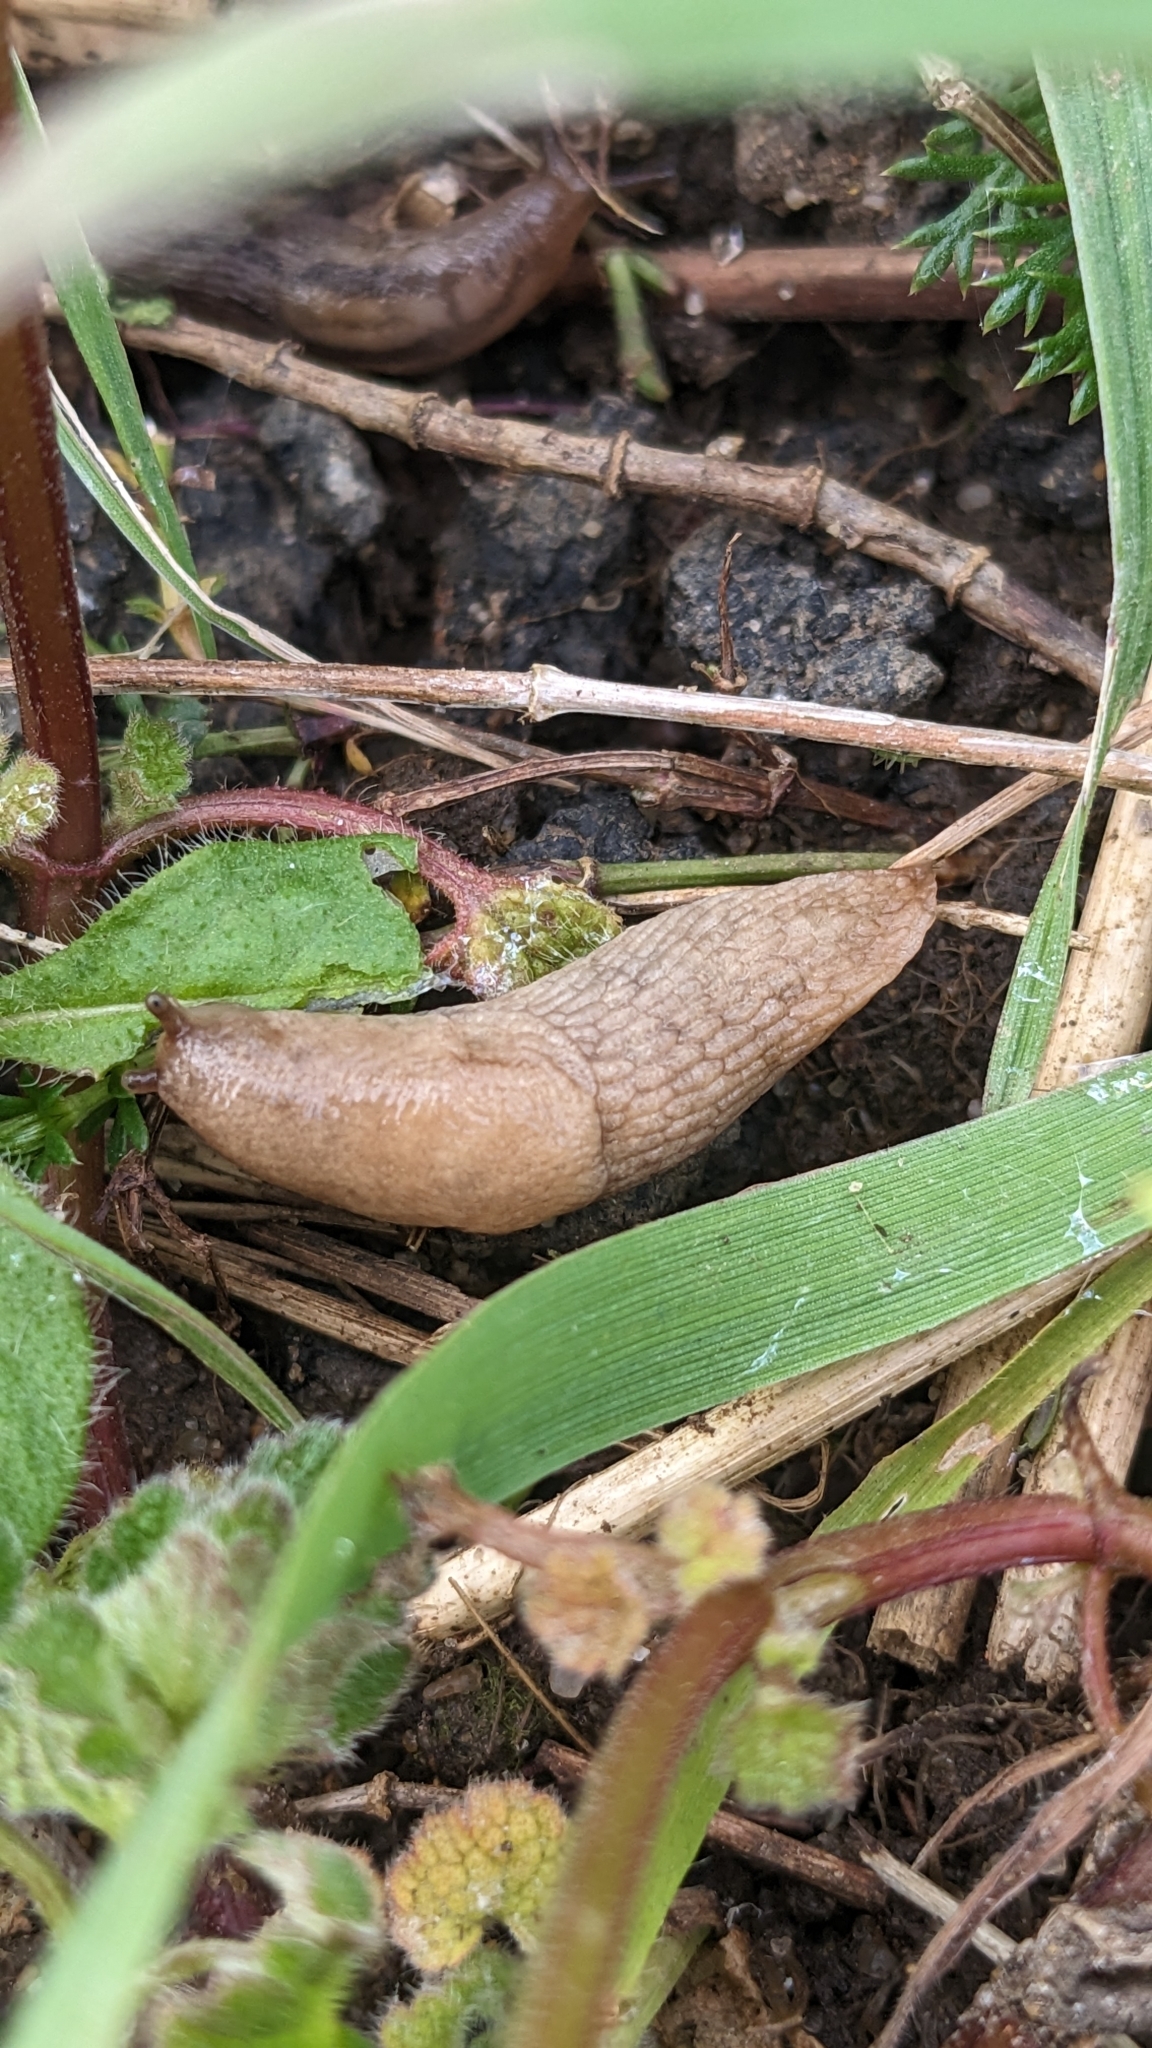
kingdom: Animalia
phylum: Mollusca
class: Gastropoda
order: Stylommatophora
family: Agriolimacidae
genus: Deroceras
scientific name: Deroceras reticulatum
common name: Gray field slug
